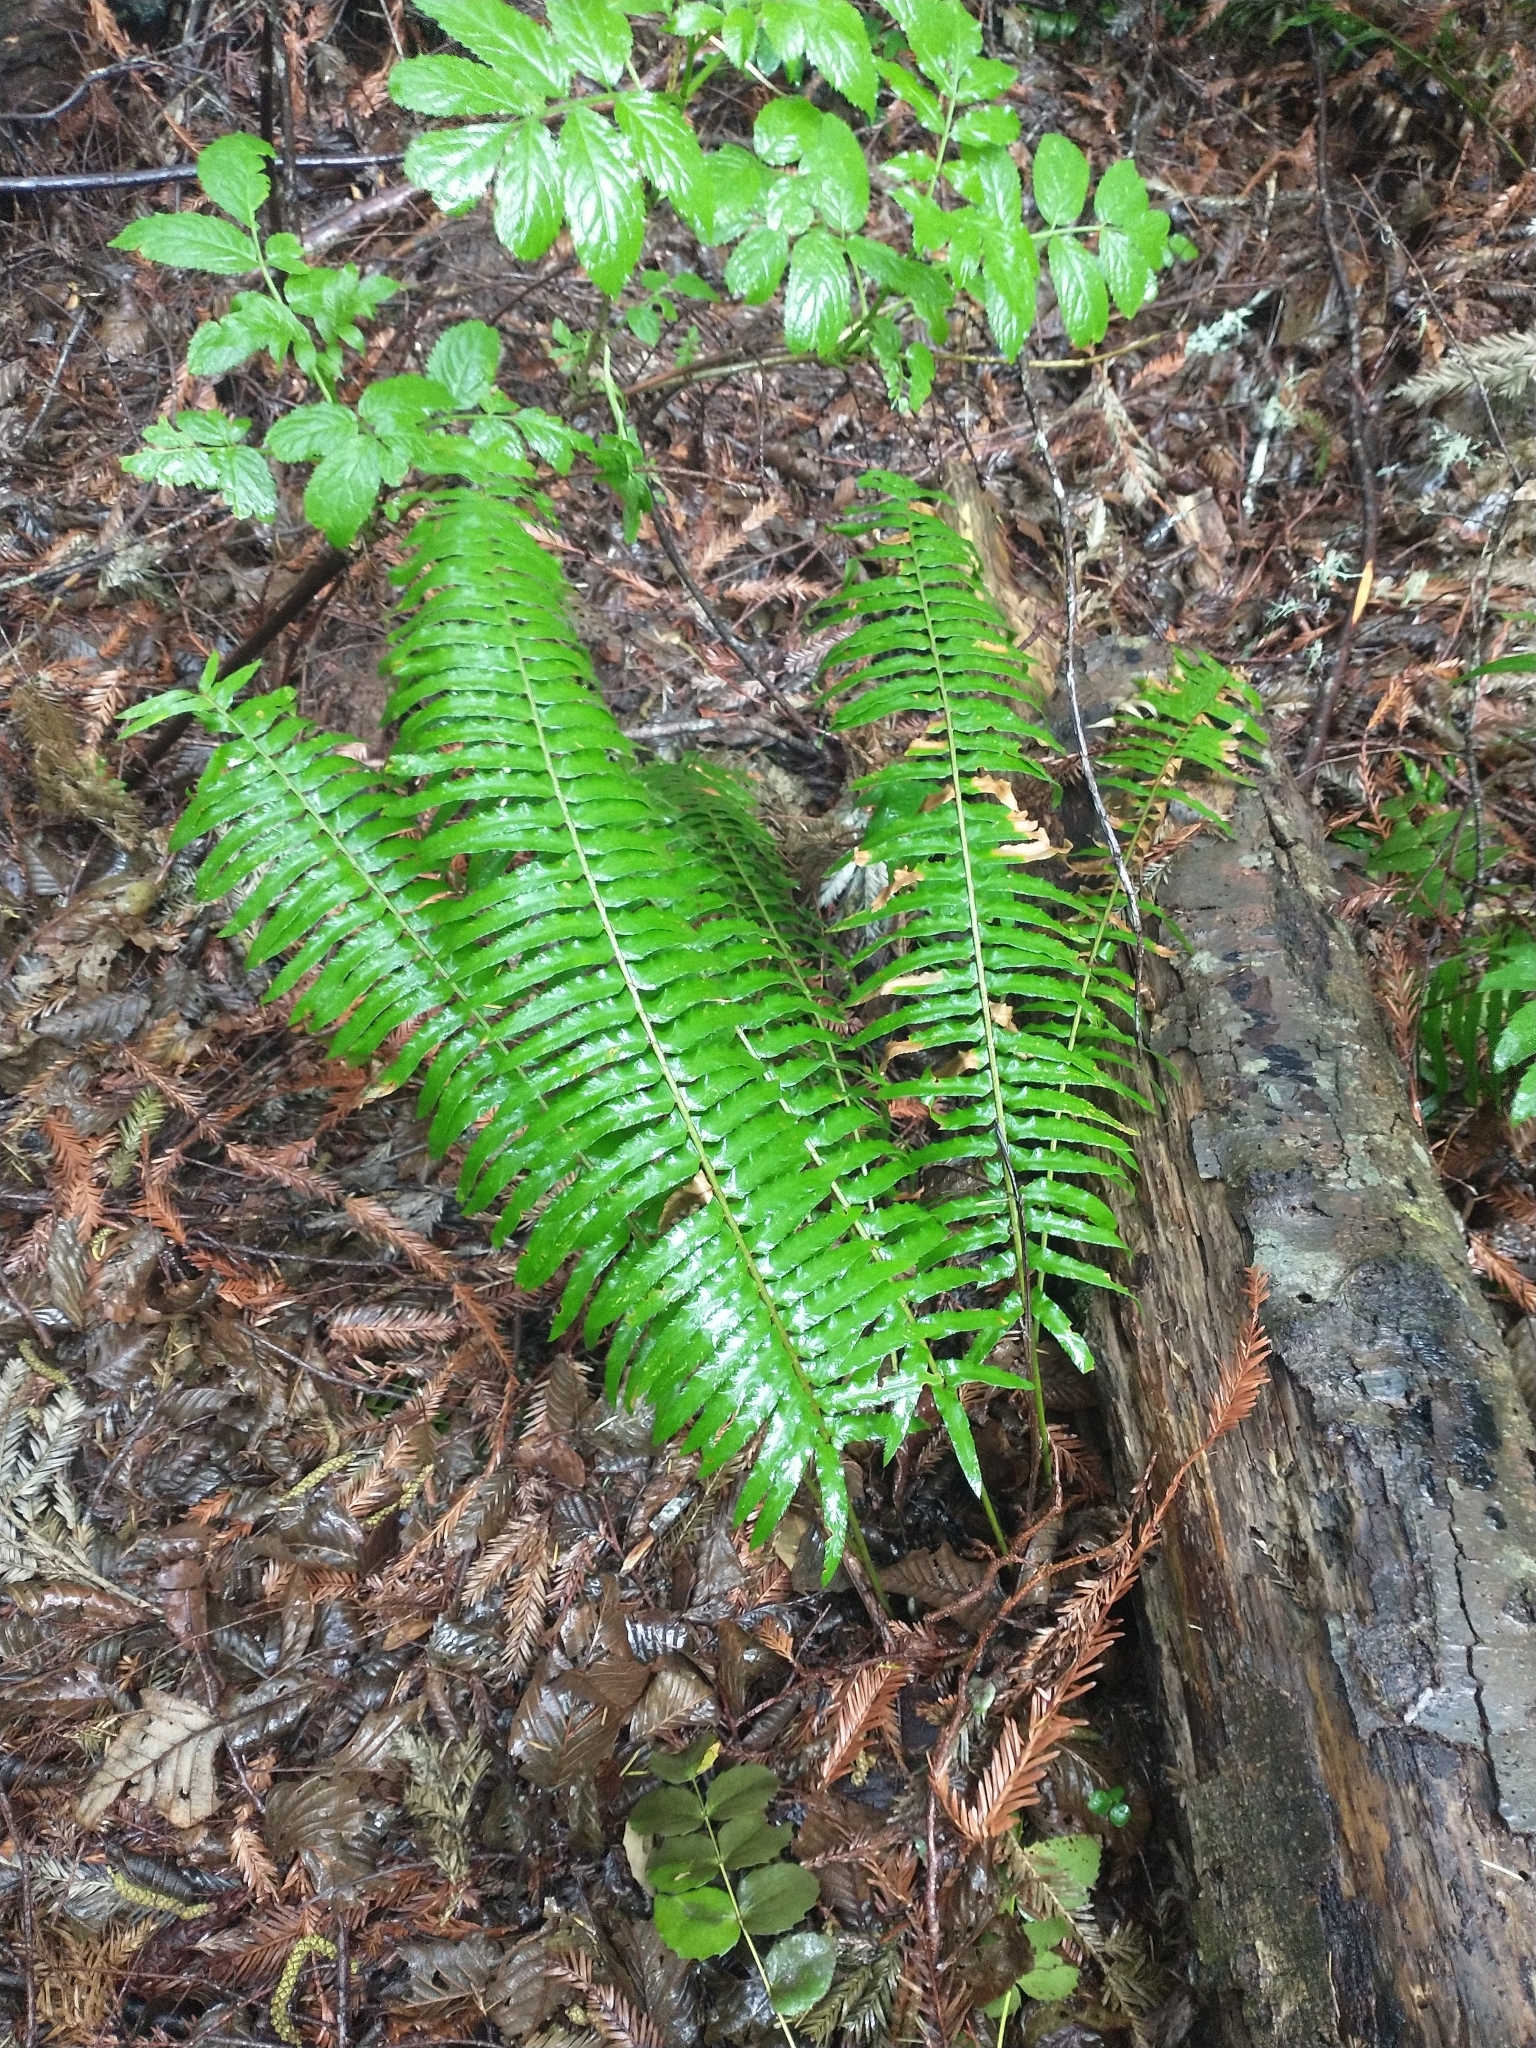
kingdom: Plantae
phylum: Tracheophyta
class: Polypodiopsida
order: Polypodiales
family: Dryopteridaceae
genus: Polystichum
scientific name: Polystichum munitum
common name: Western sword-fern
